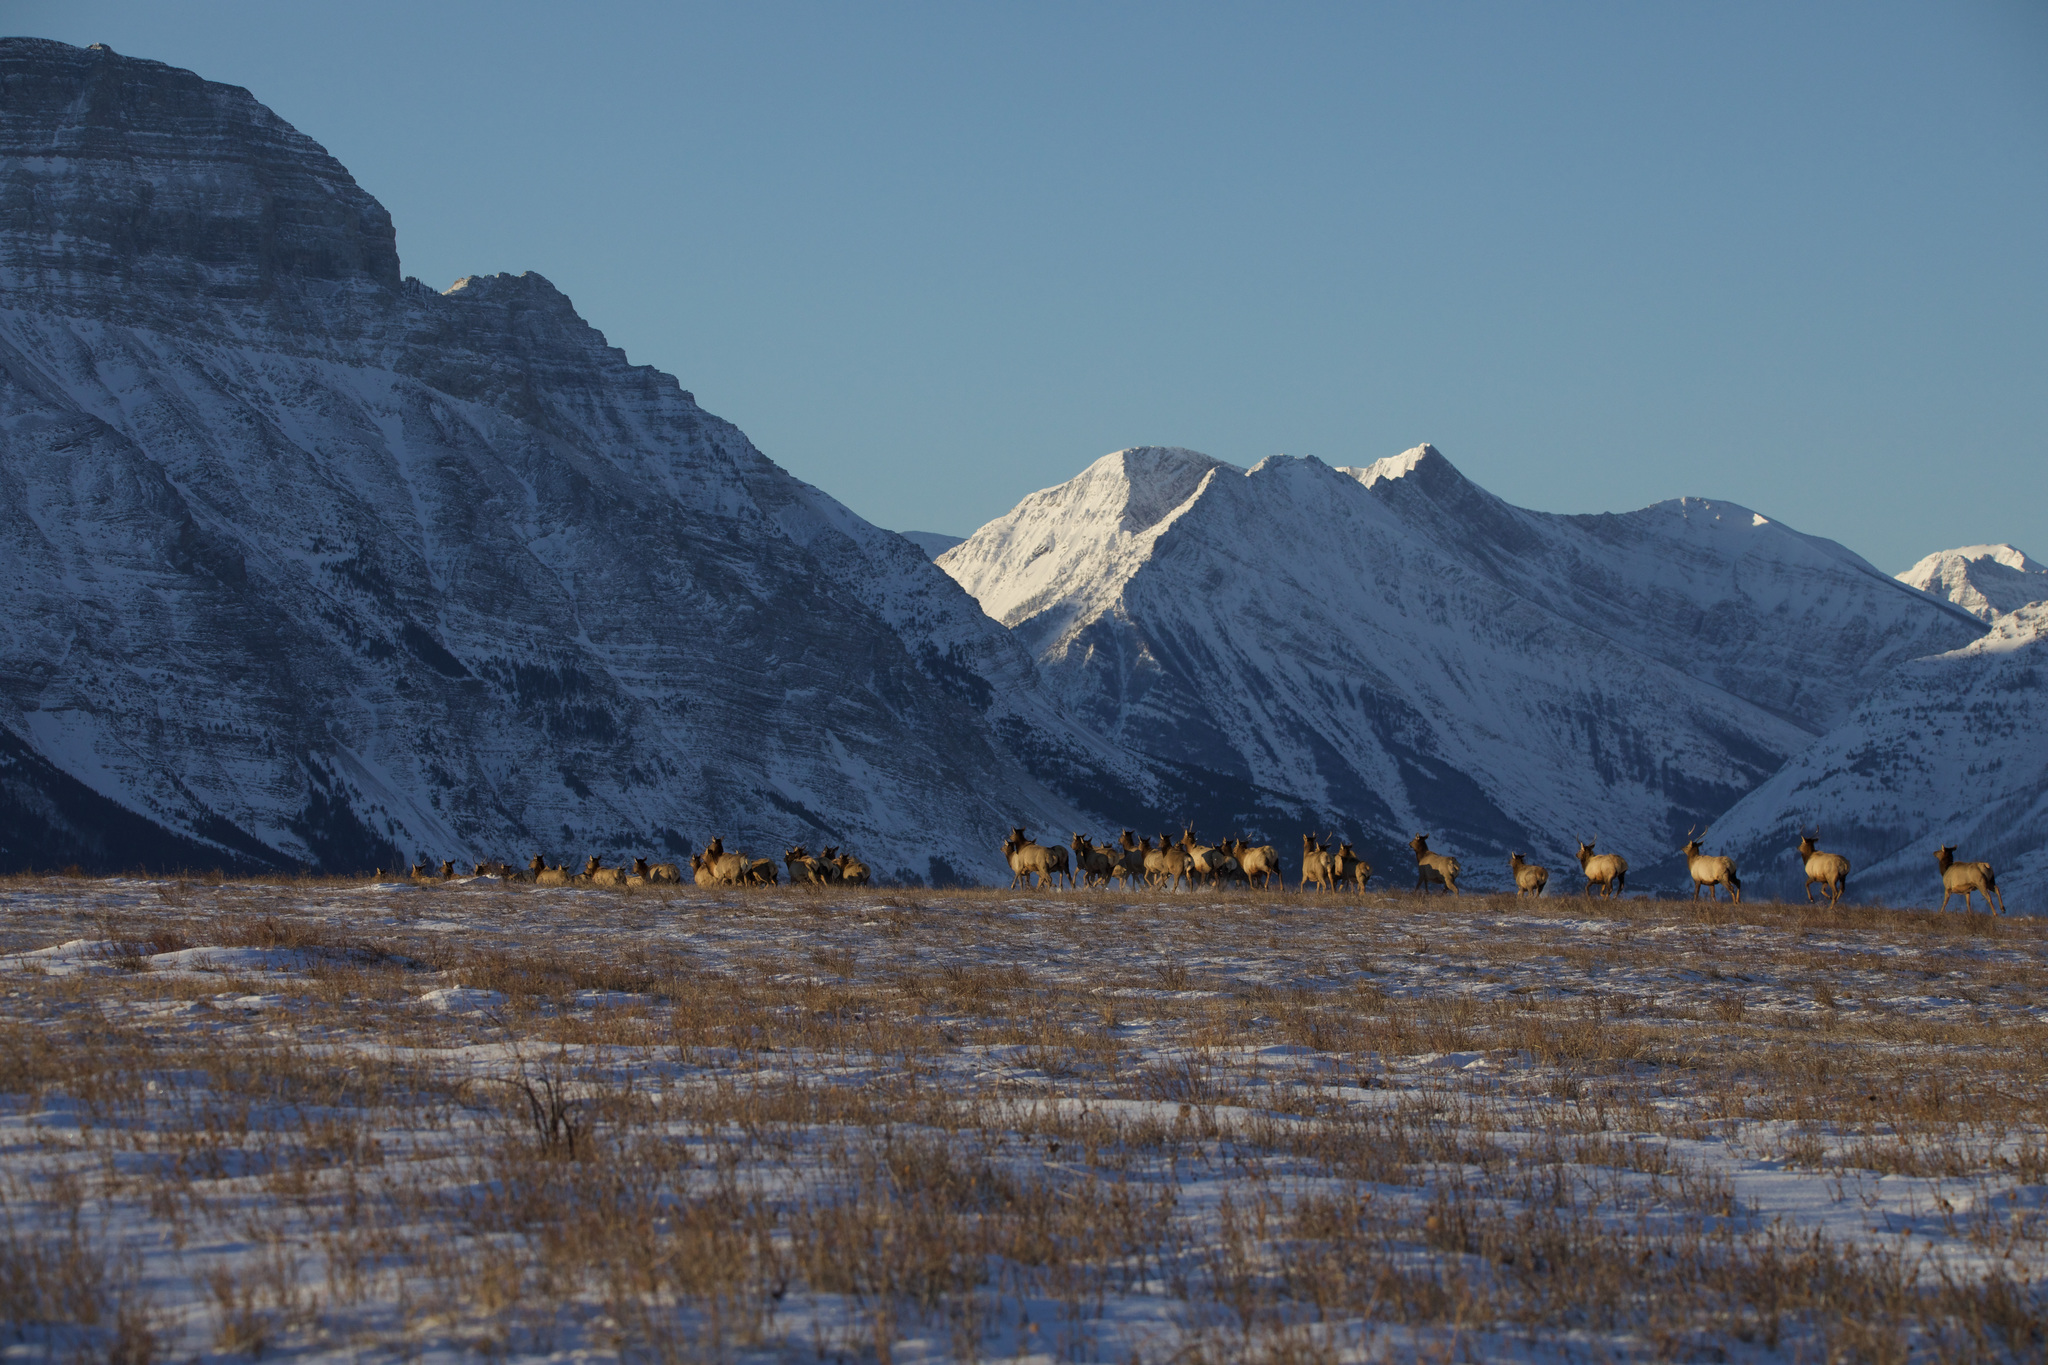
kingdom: Animalia
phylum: Chordata
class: Mammalia
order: Artiodactyla
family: Cervidae
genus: Cervus
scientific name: Cervus elaphus
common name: Red deer
